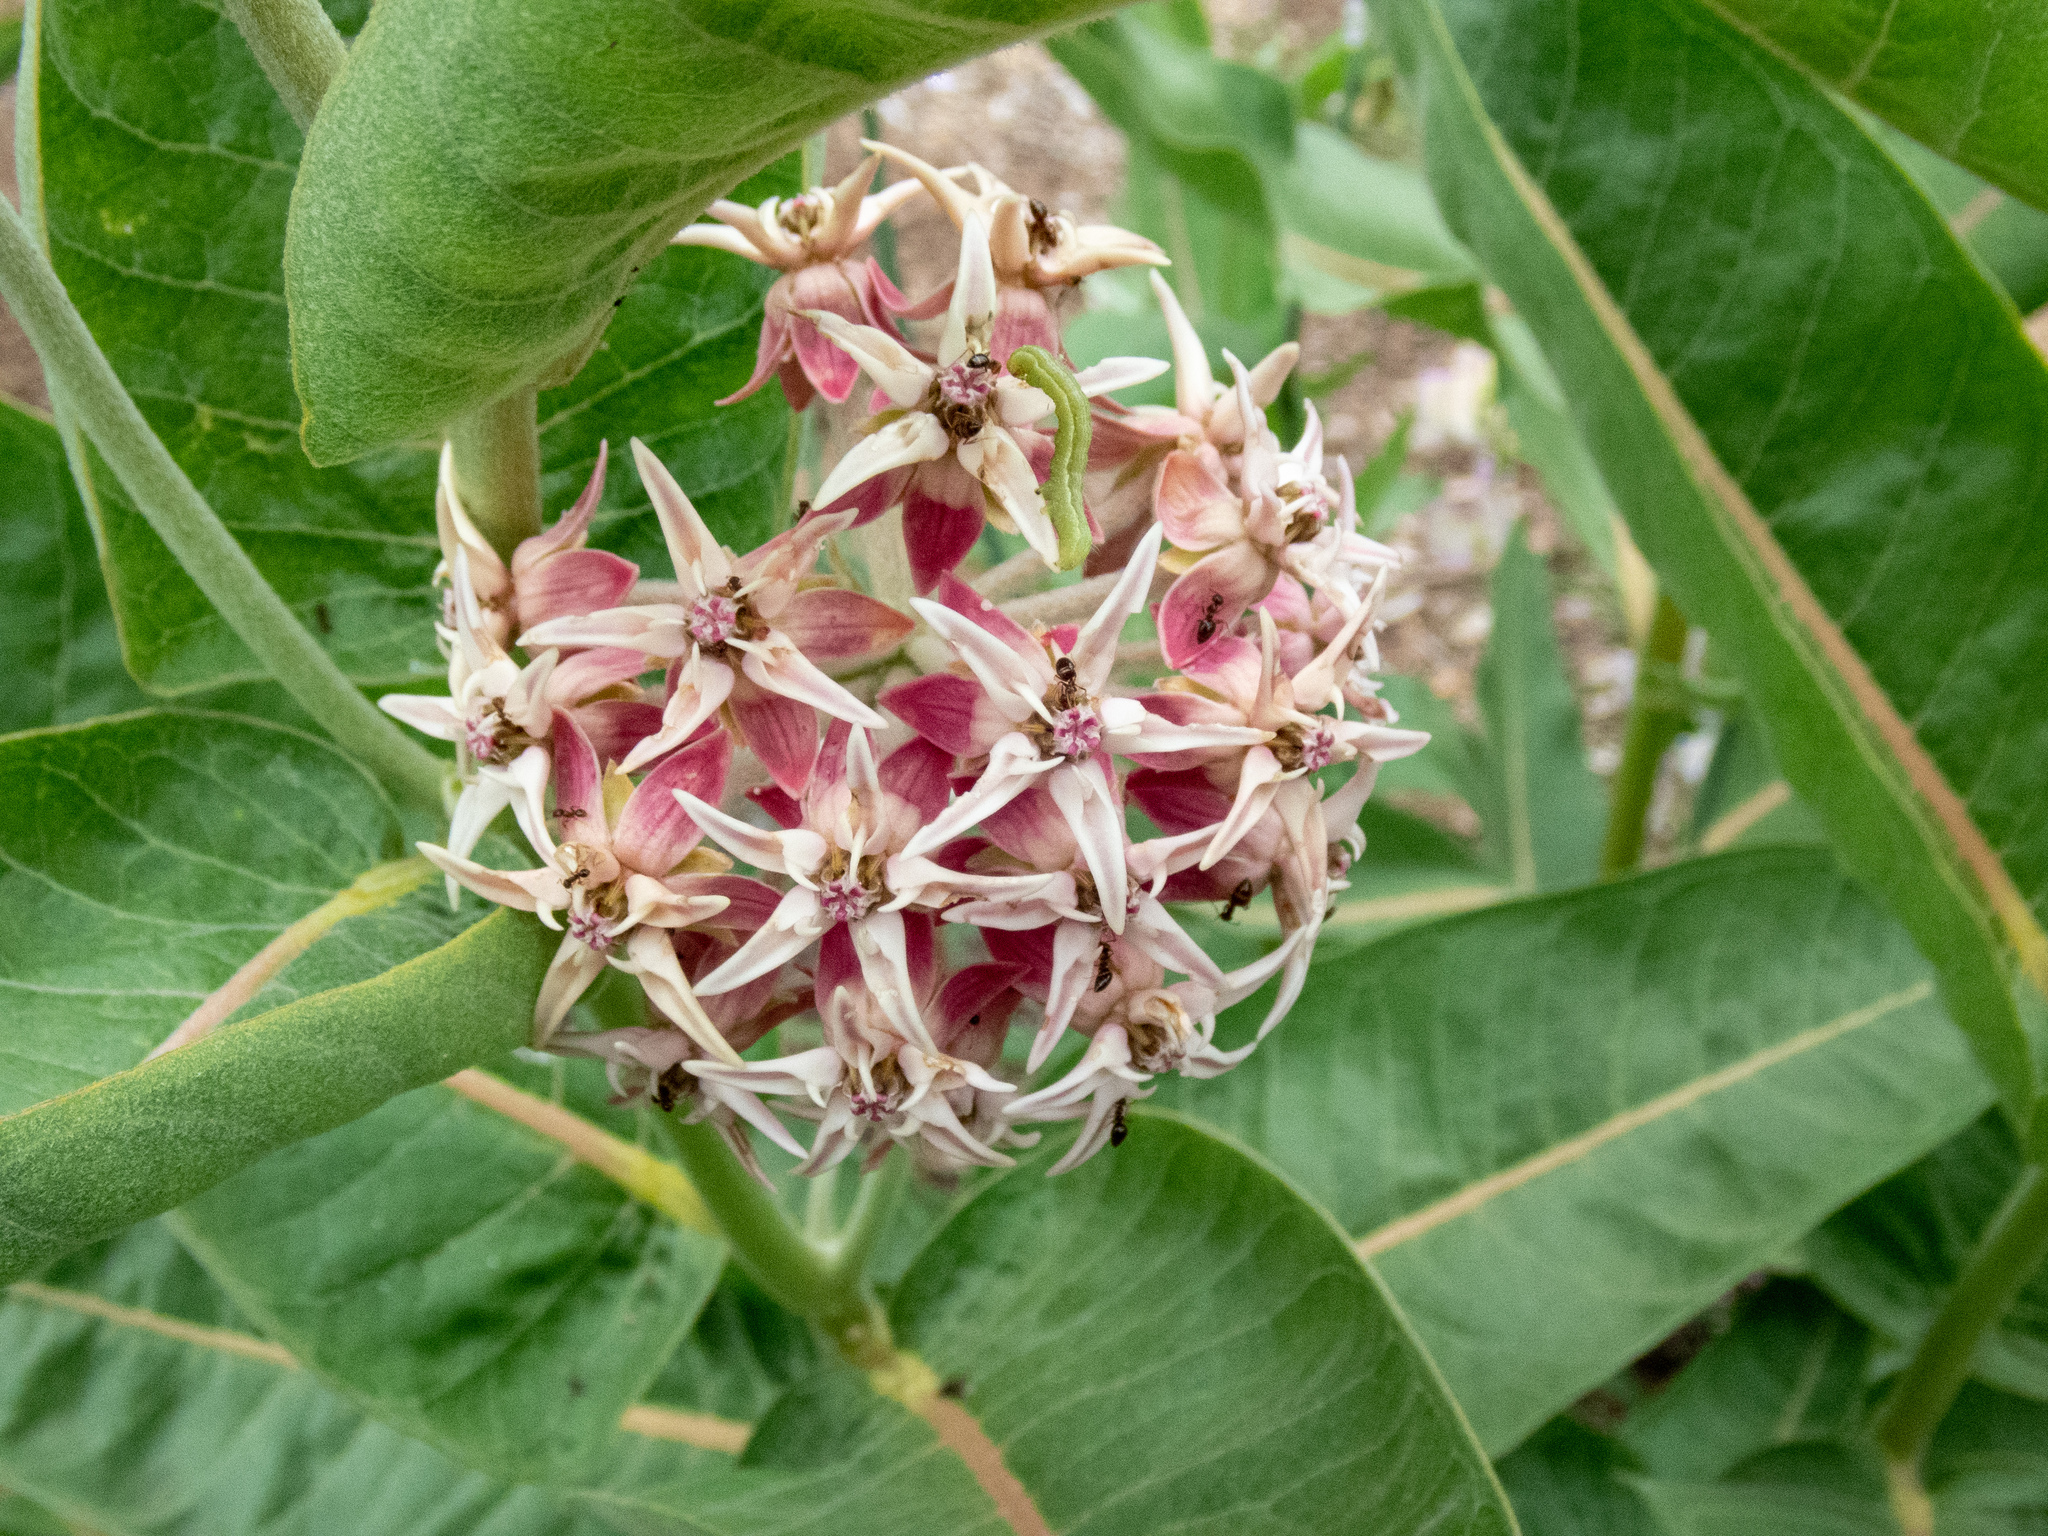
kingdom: Plantae
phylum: Tracheophyta
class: Magnoliopsida
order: Gentianales
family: Apocynaceae
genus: Asclepias
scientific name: Asclepias speciosa
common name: Showy milkweed
